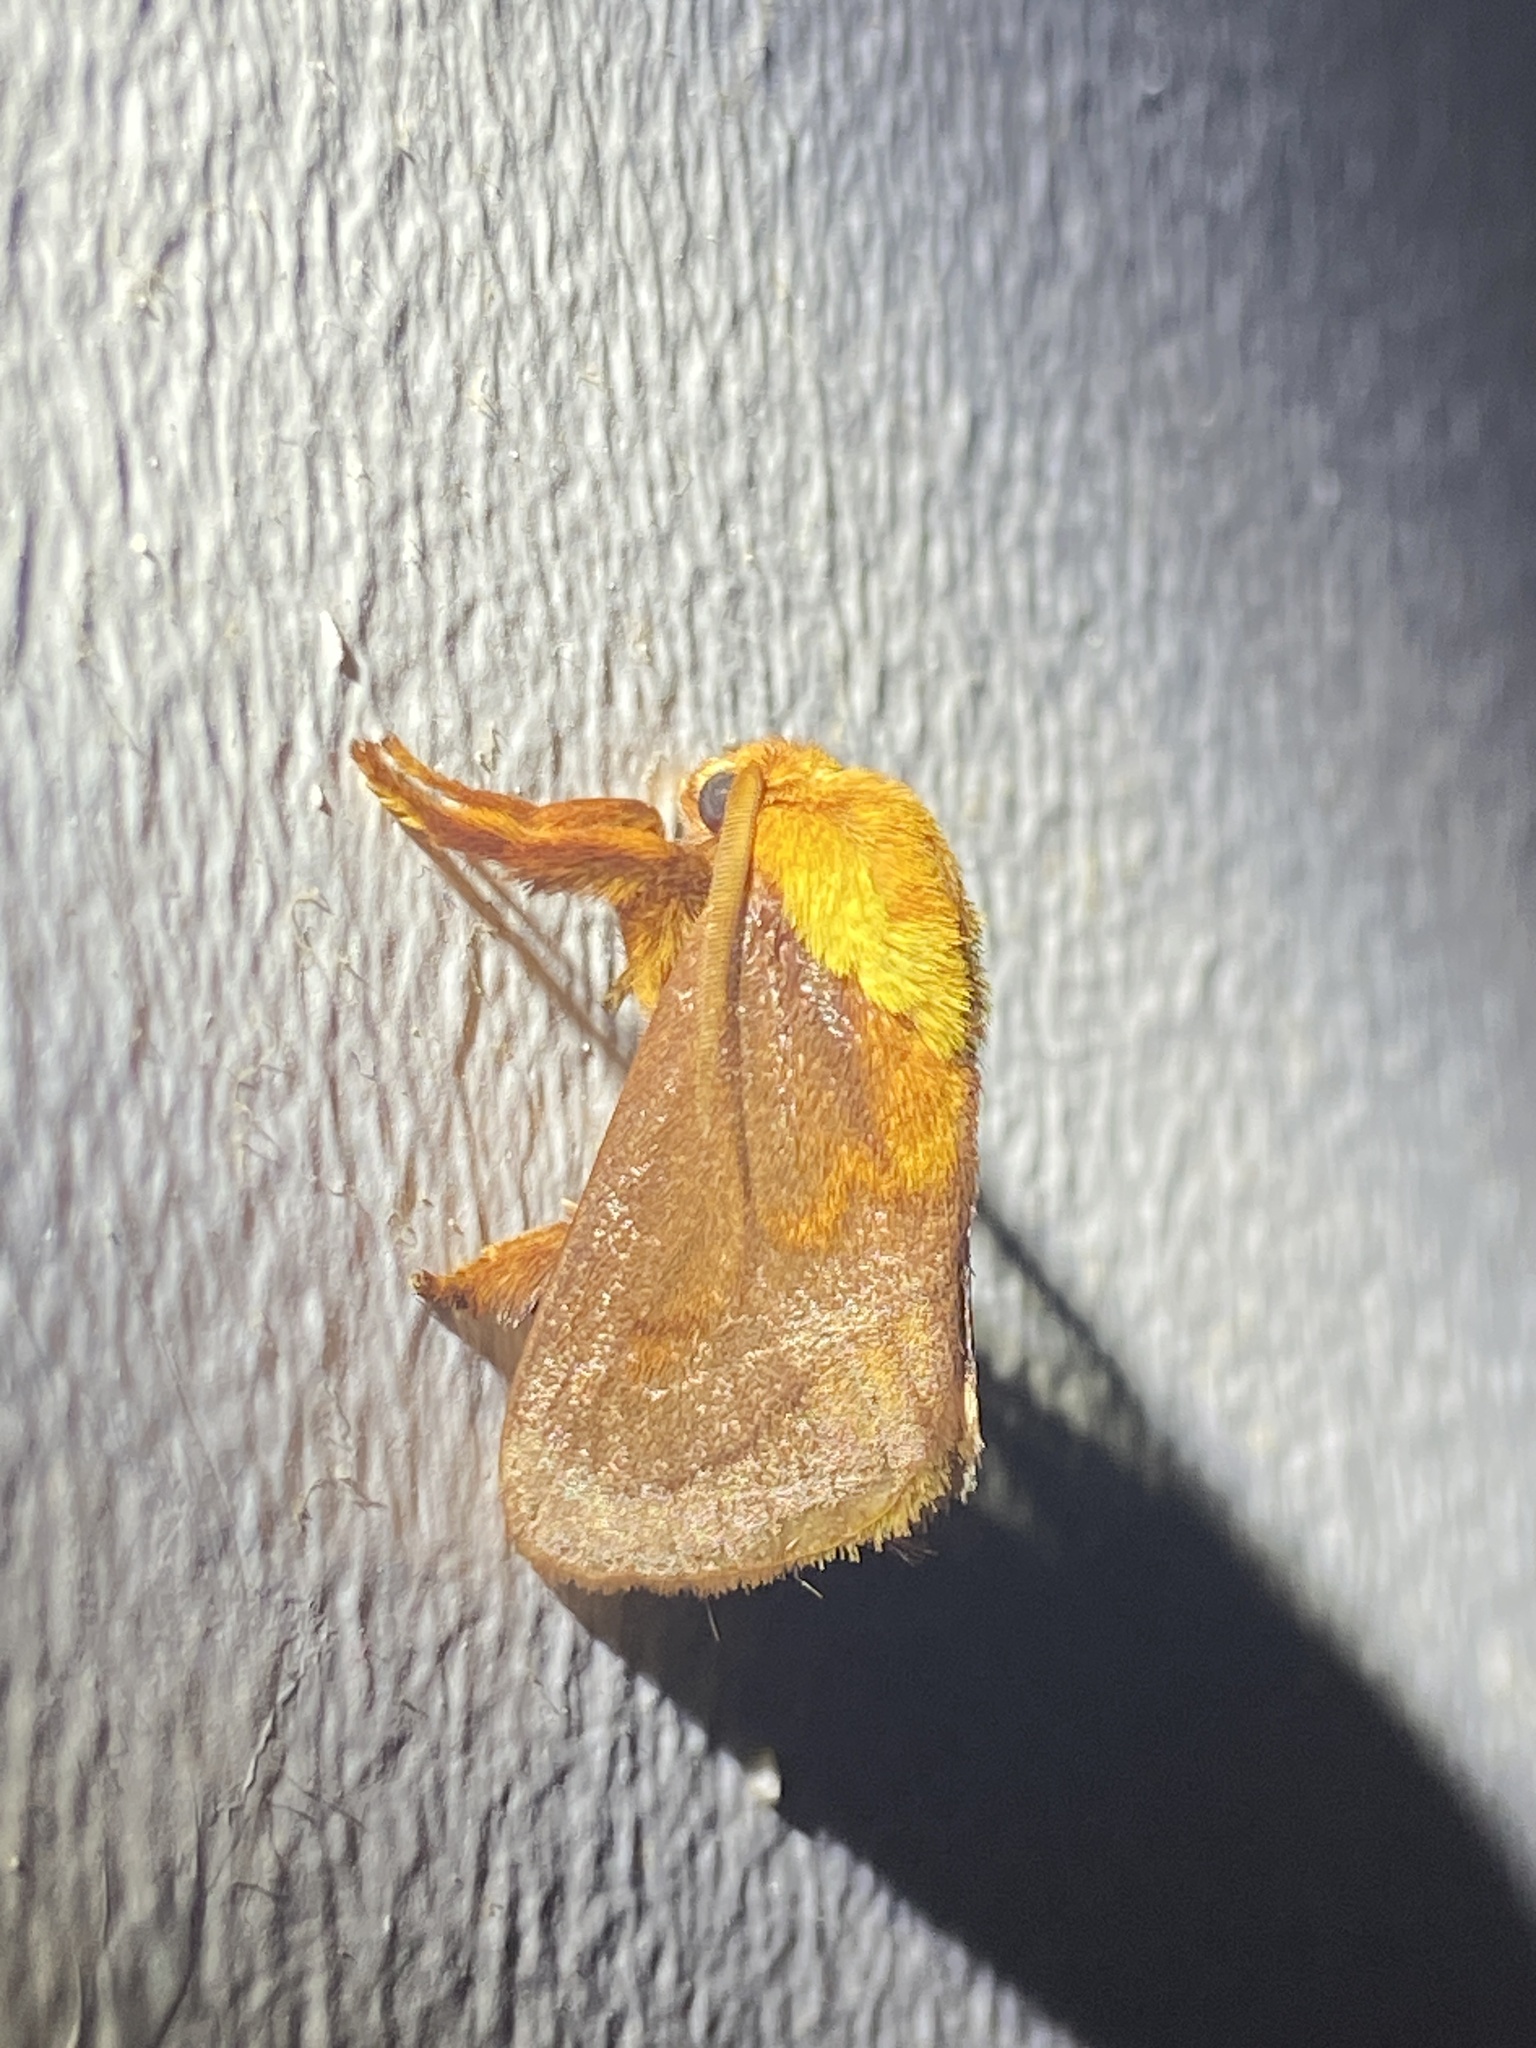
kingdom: Animalia
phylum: Arthropoda
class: Insecta
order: Lepidoptera
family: Limacodidae
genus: Narosoideus
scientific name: Narosoideus ochridorsalis
